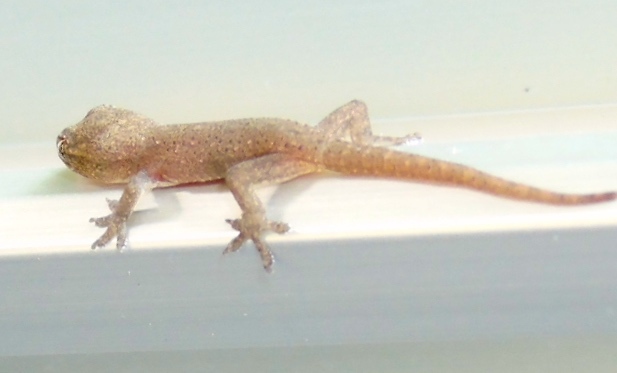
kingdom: Animalia
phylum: Chordata
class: Squamata
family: Gekkonidae
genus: Hemidactylus
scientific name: Hemidactylus frenatus
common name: Common house gecko
